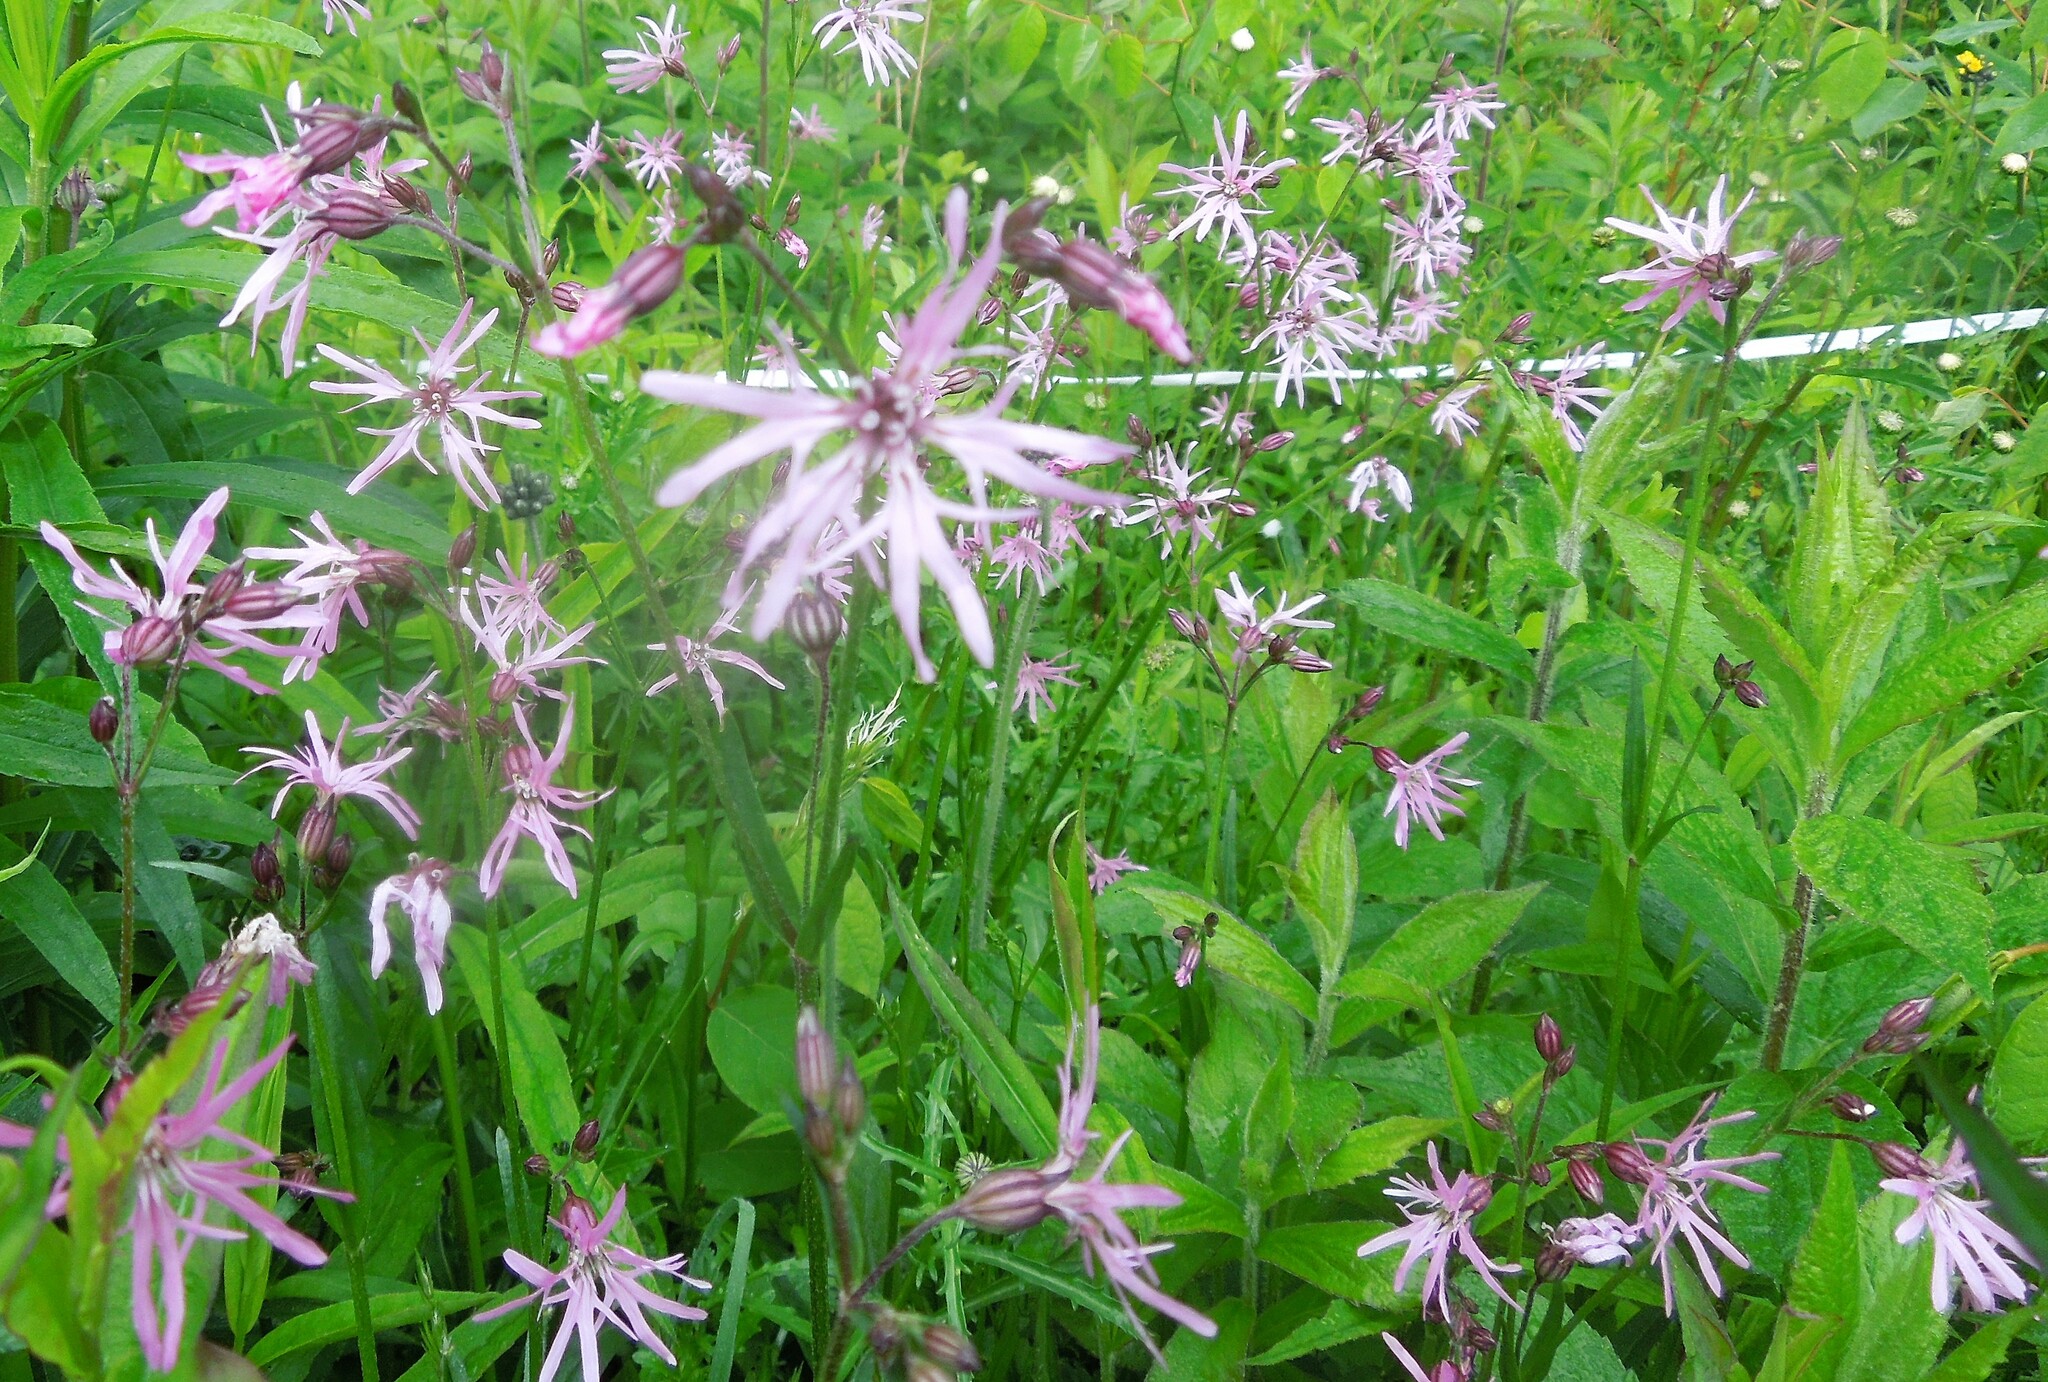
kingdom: Plantae
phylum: Tracheophyta
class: Magnoliopsida
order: Caryophyllales
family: Caryophyllaceae
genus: Silene
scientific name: Silene flos-cuculi
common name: Ragged-robin
